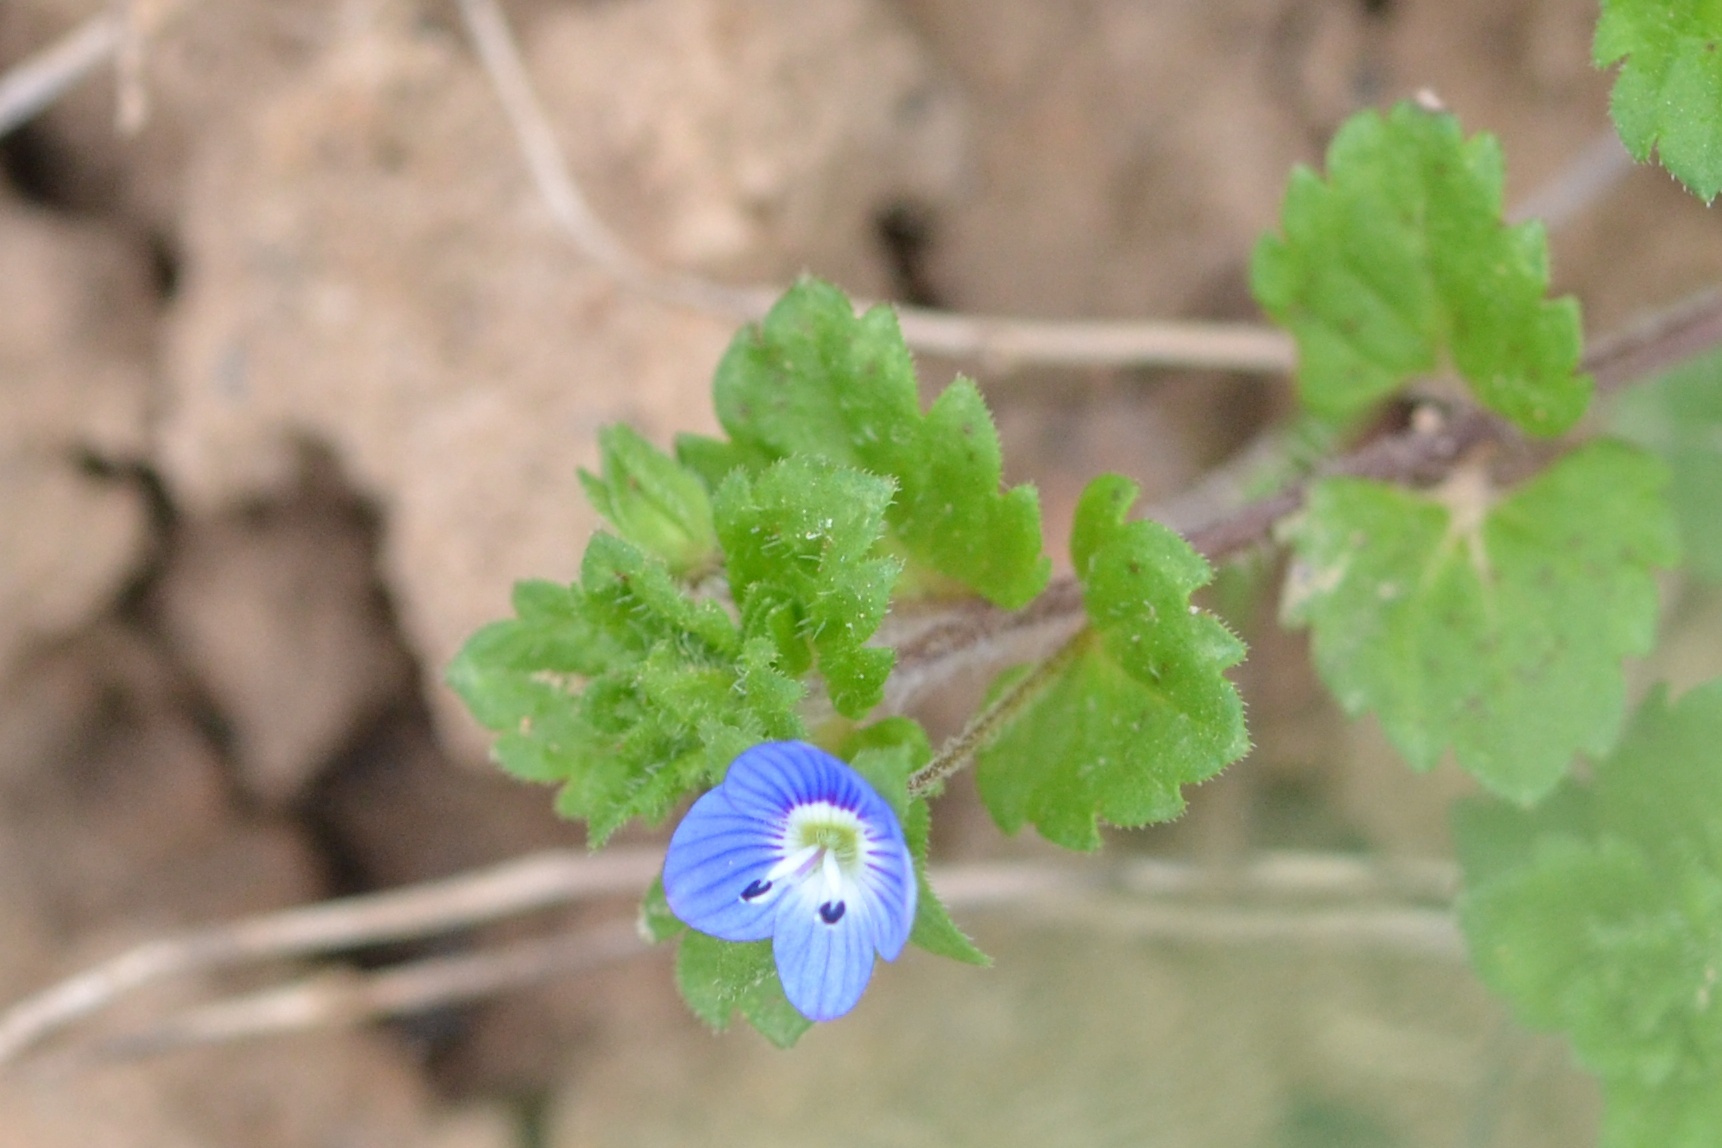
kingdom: Plantae
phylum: Tracheophyta
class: Magnoliopsida
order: Lamiales
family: Plantaginaceae
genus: Veronica
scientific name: Veronica persica
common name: Common field-speedwell
